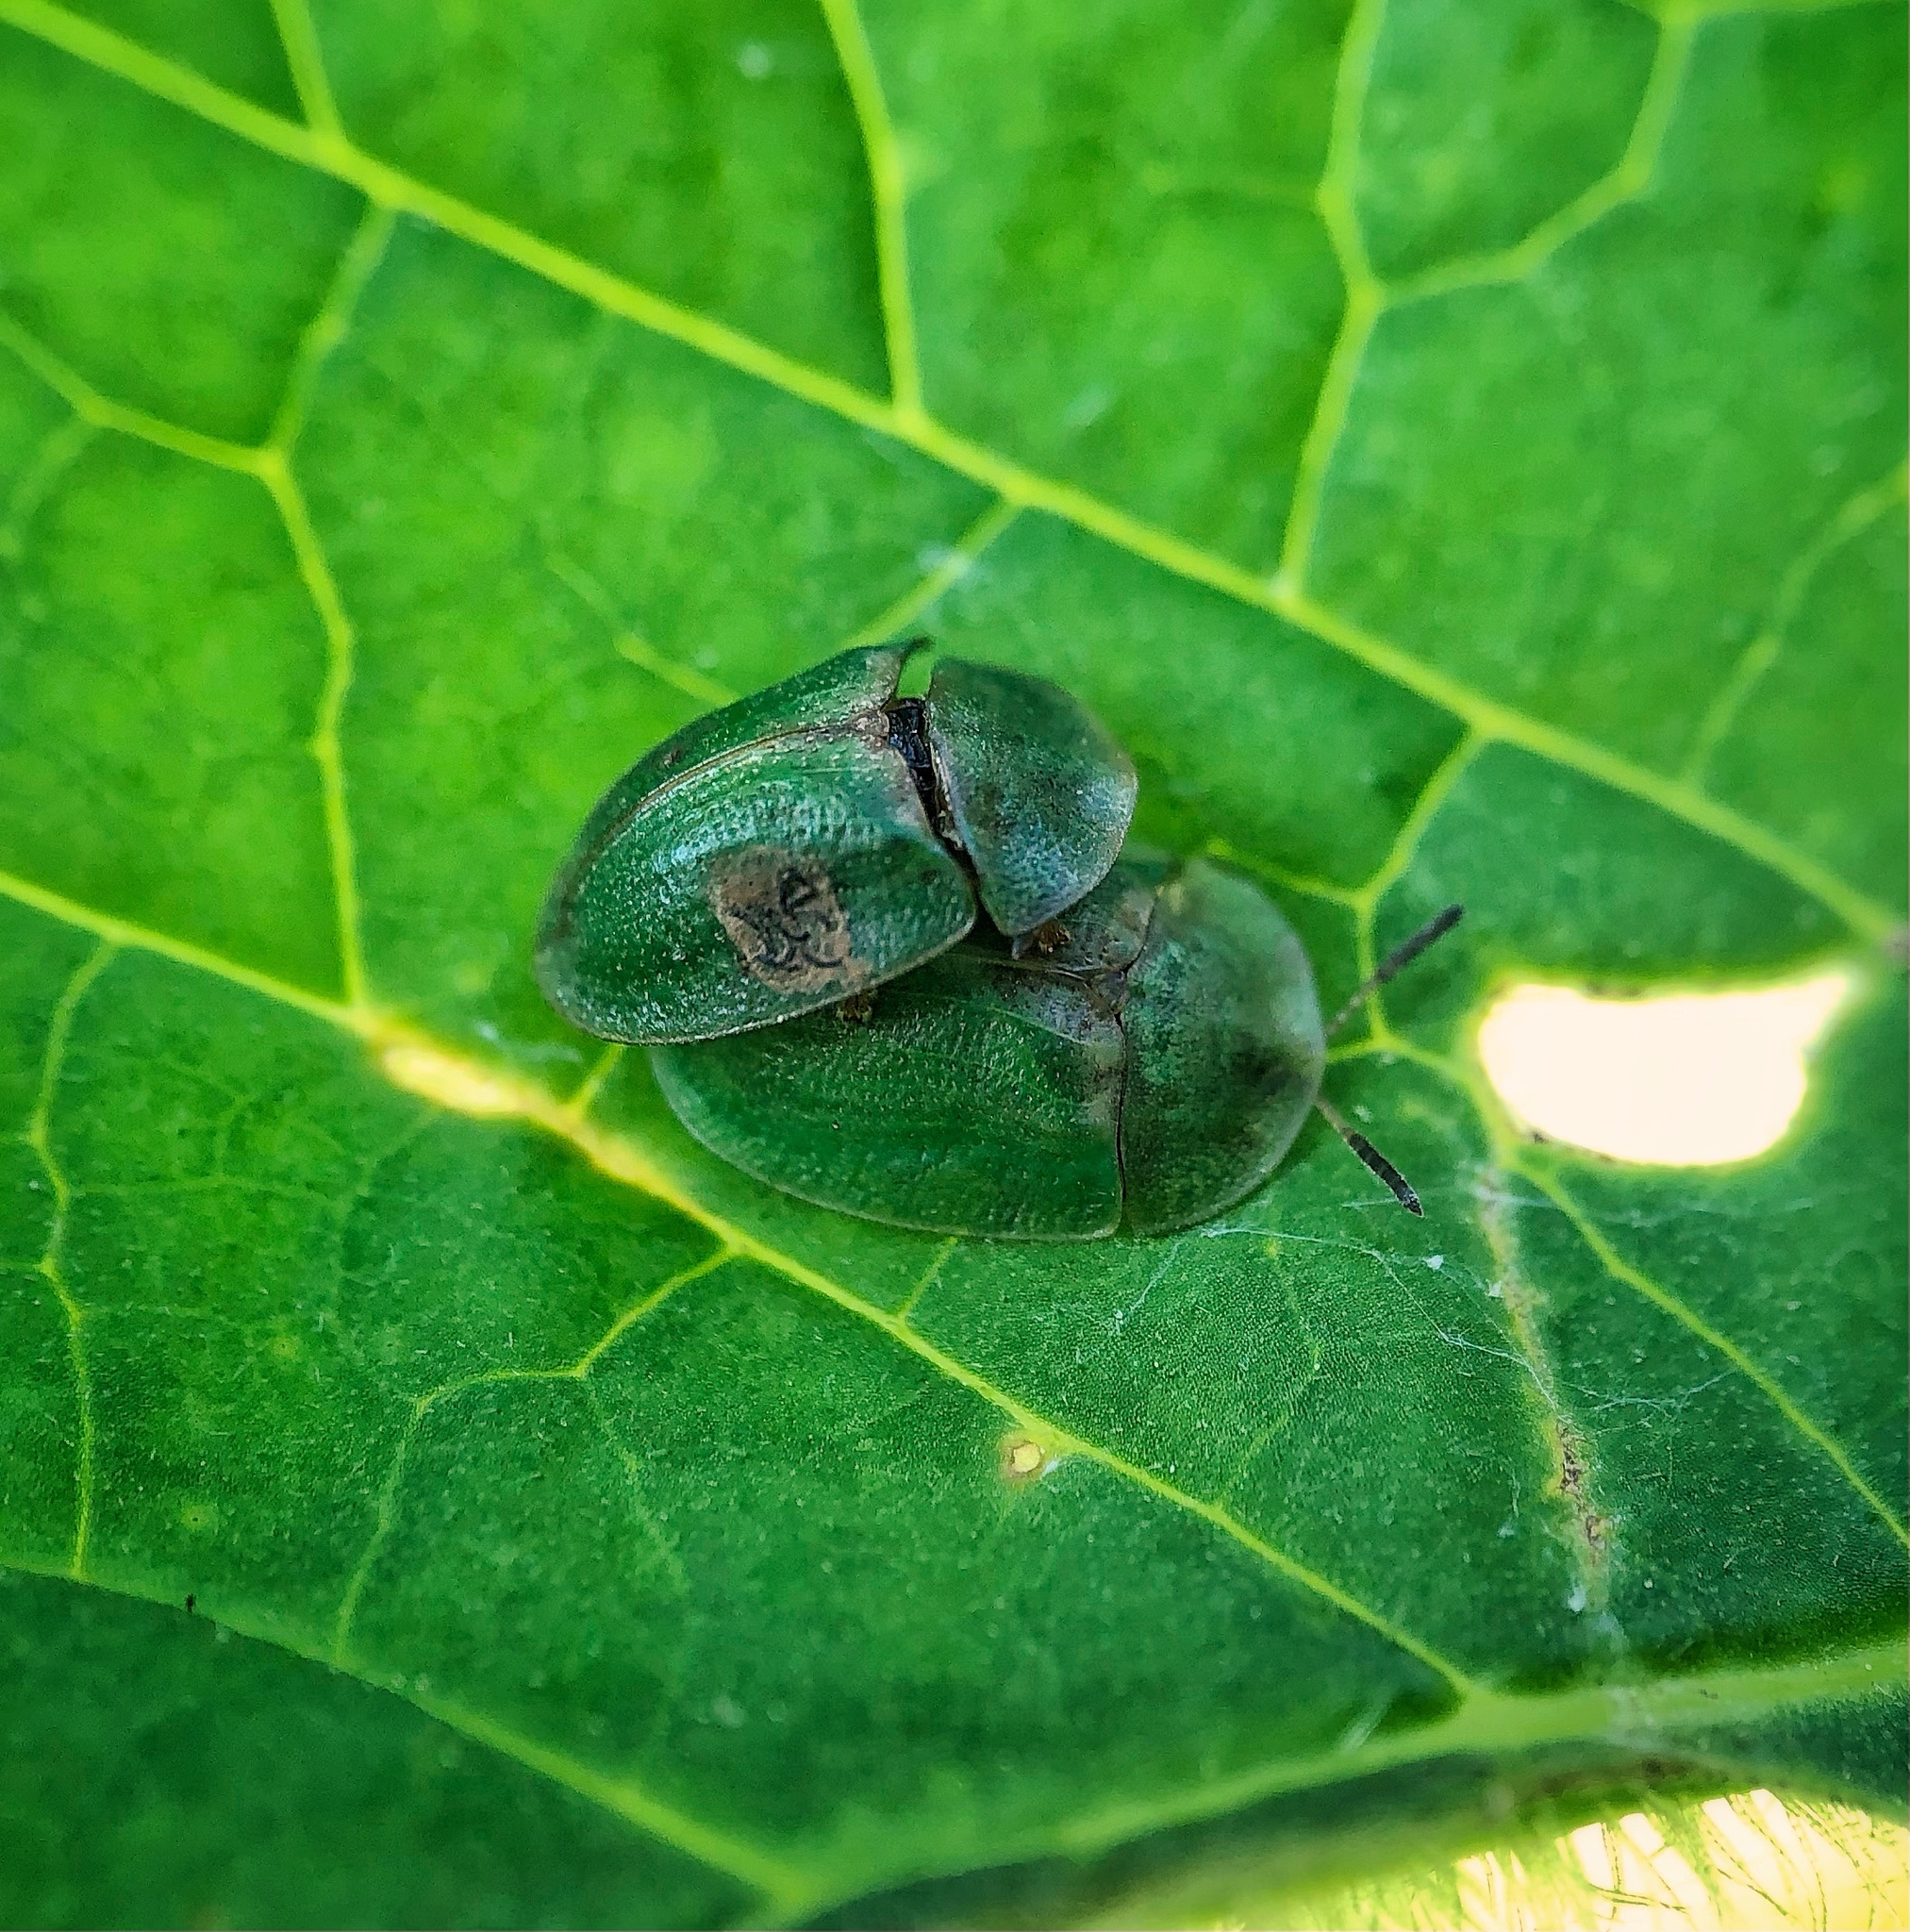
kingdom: Animalia
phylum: Arthropoda
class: Insecta
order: Coleoptera
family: Chrysomelidae
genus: Cassida
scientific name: Cassida rubiginosa
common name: Thistle tortoise beetle
